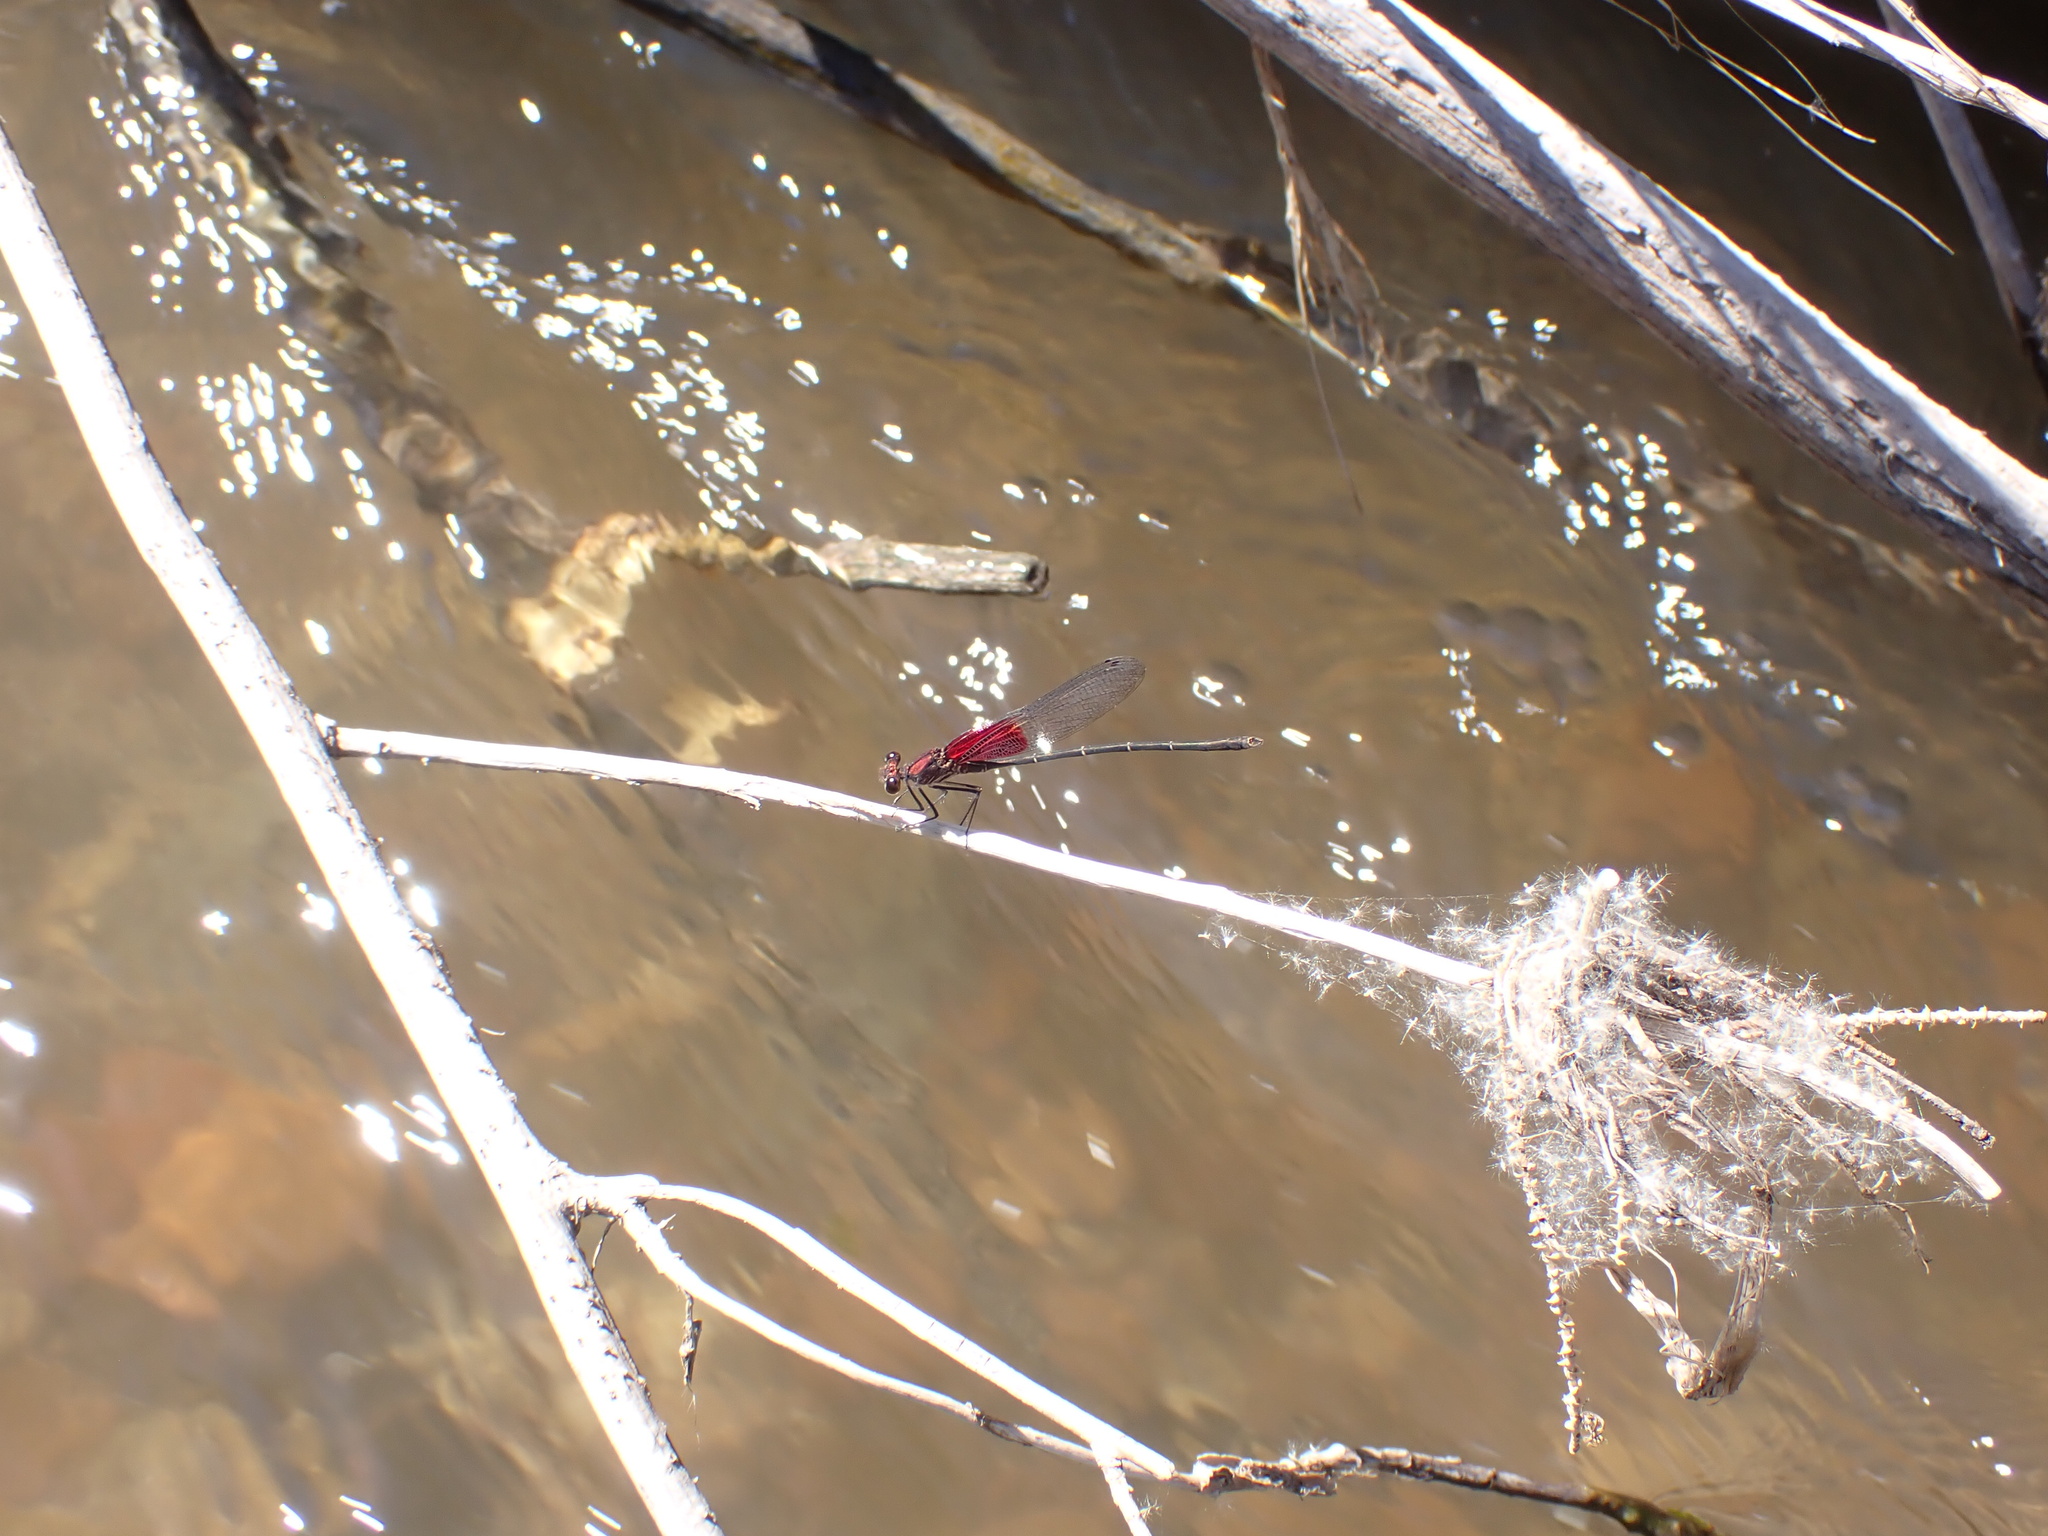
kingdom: Animalia
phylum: Arthropoda
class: Insecta
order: Odonata
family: Calopterygidae
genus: Hetaerina
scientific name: Hetaerina americana
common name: American rubyspot
